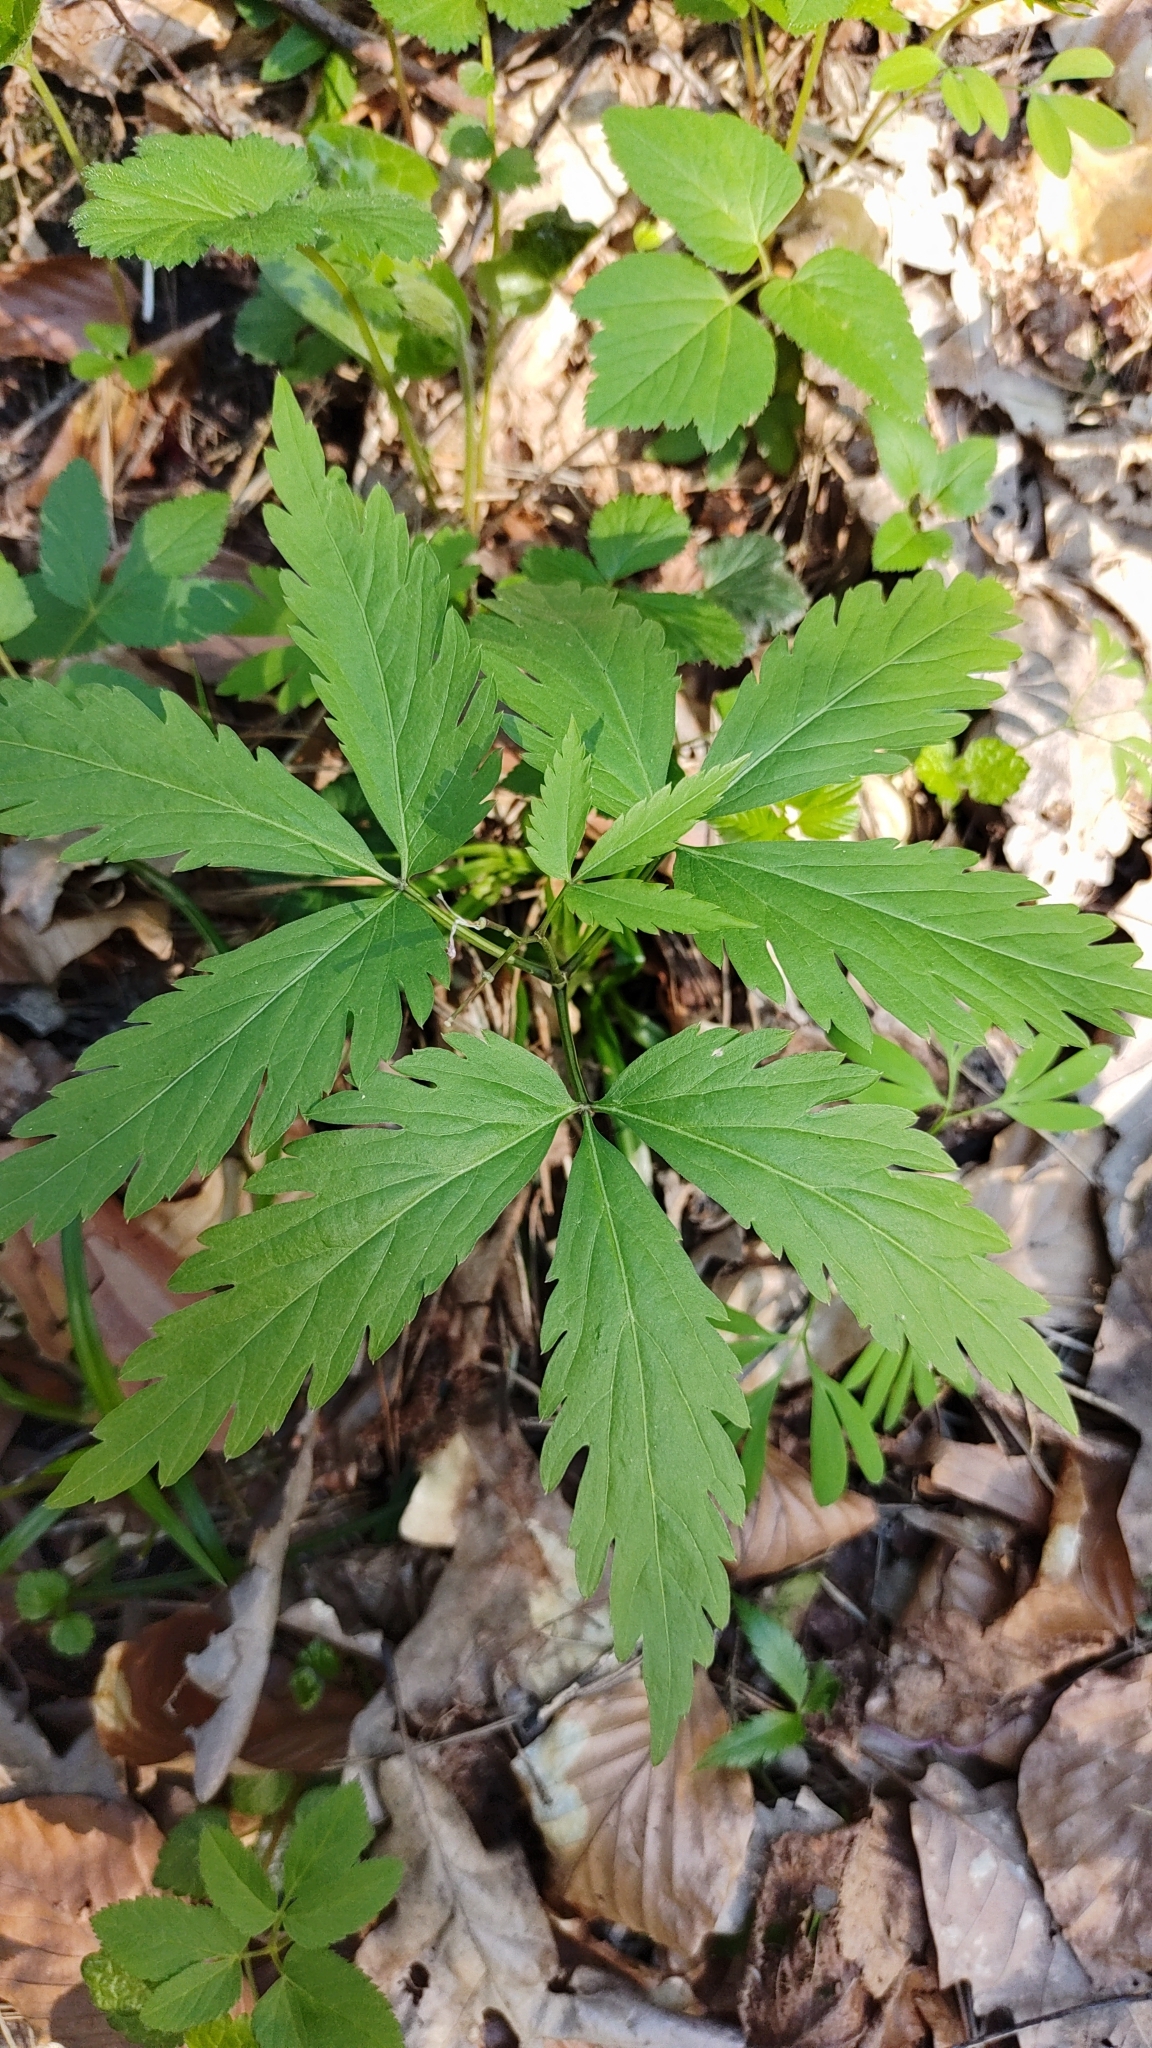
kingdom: Plantae
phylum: Tracheophyta
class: Magnoliopsida
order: Brassicales
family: Brassicaceae
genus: Cardamine
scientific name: Cardamine glanduligera
